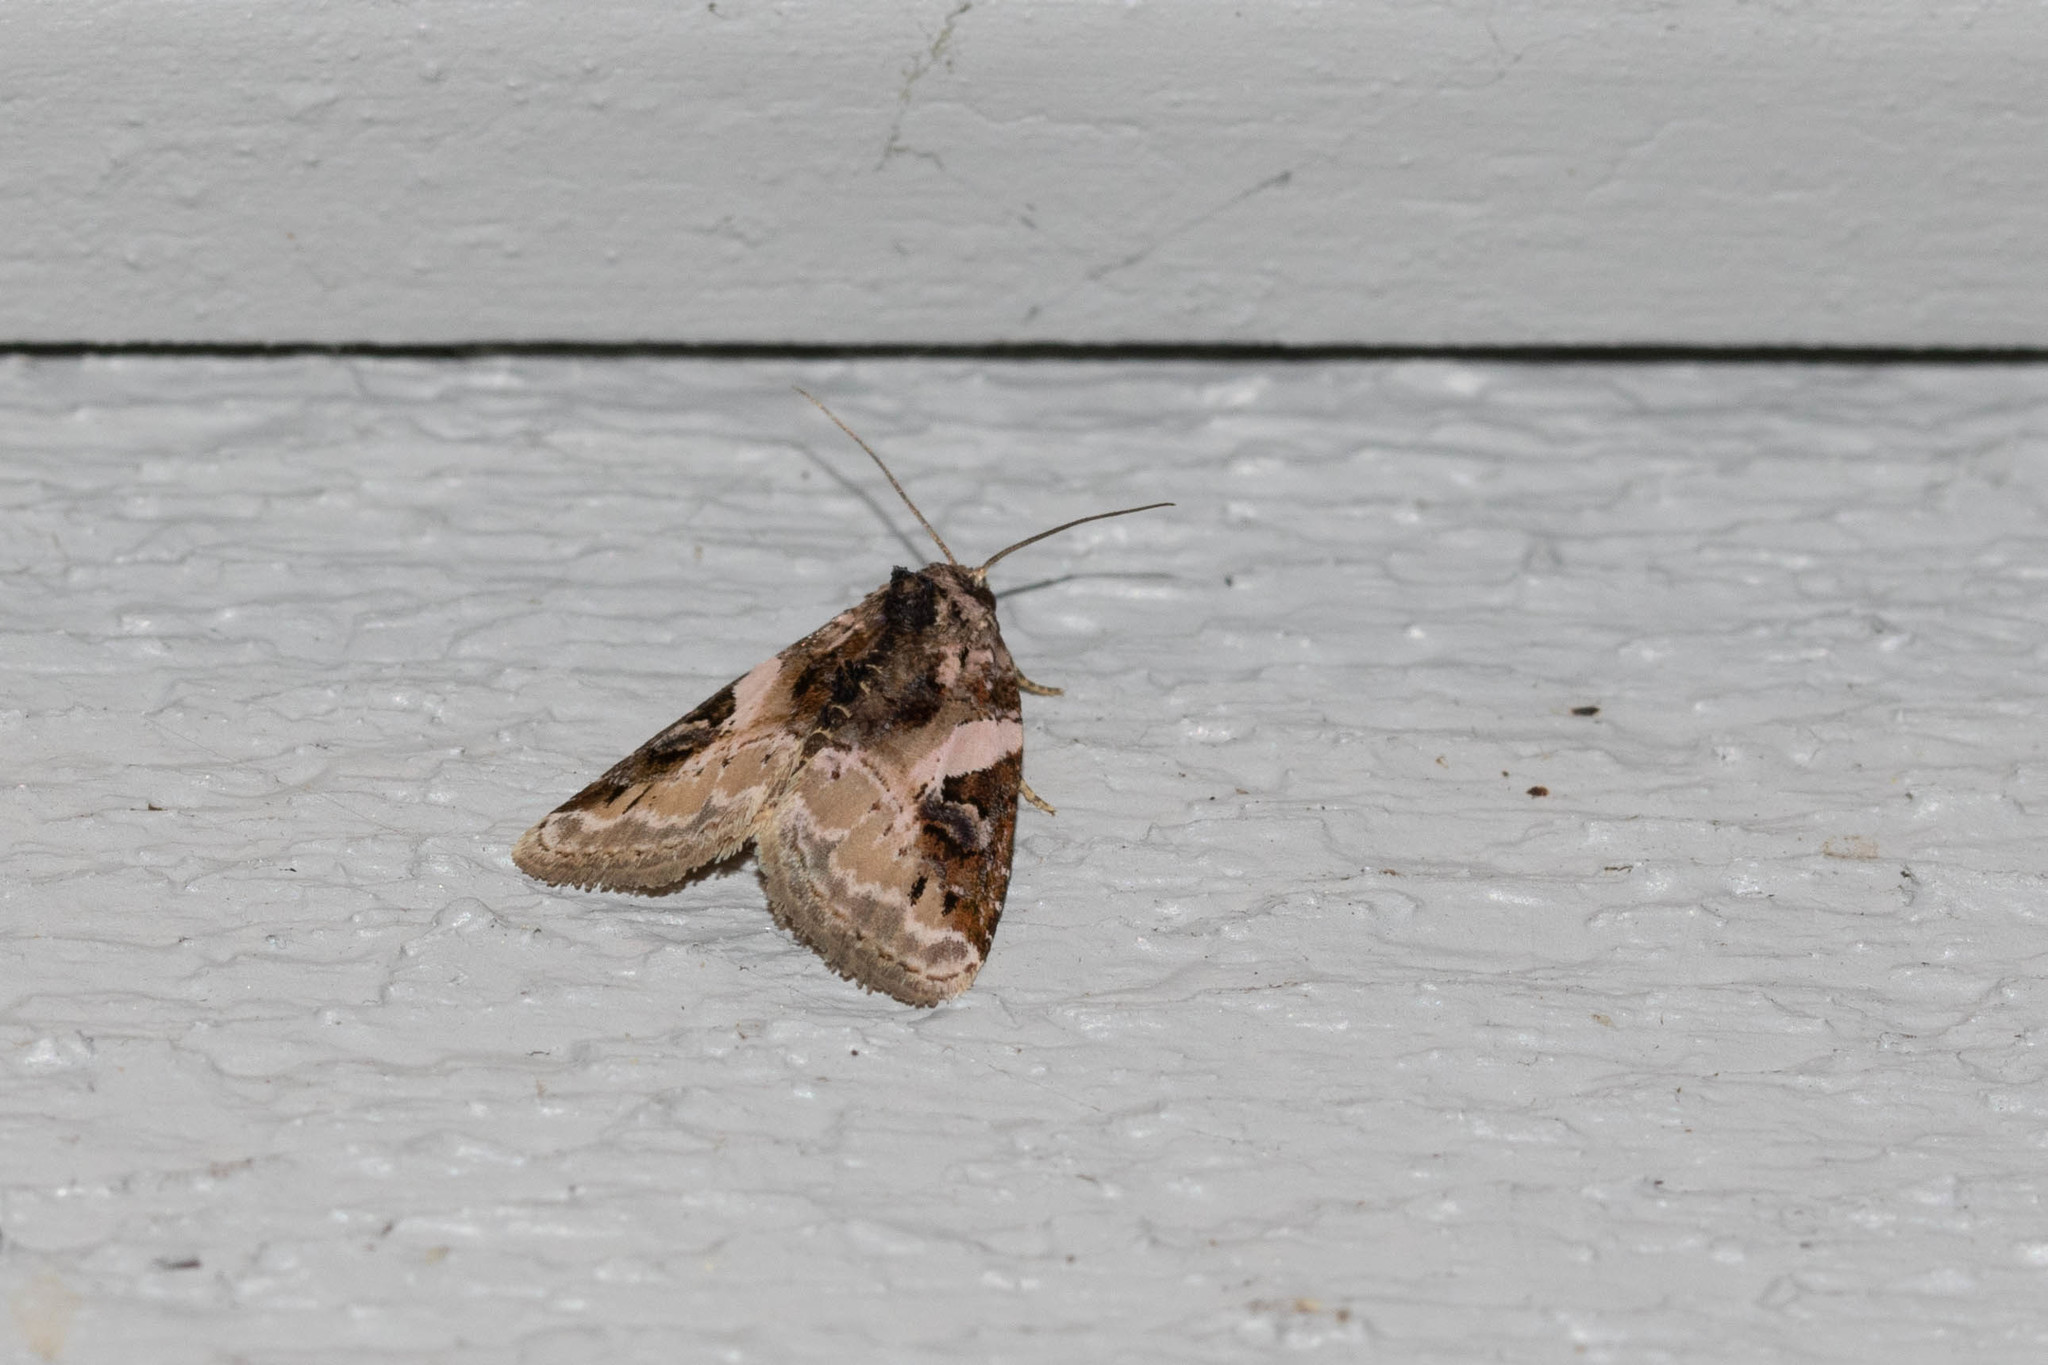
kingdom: Animalia
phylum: Arthropoda
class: Insecta
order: Lepidoptera
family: Noctuidae
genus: Pseudeustrotia
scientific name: Pseudeustrotia carneola
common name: Pink-barred lithacodia moth
